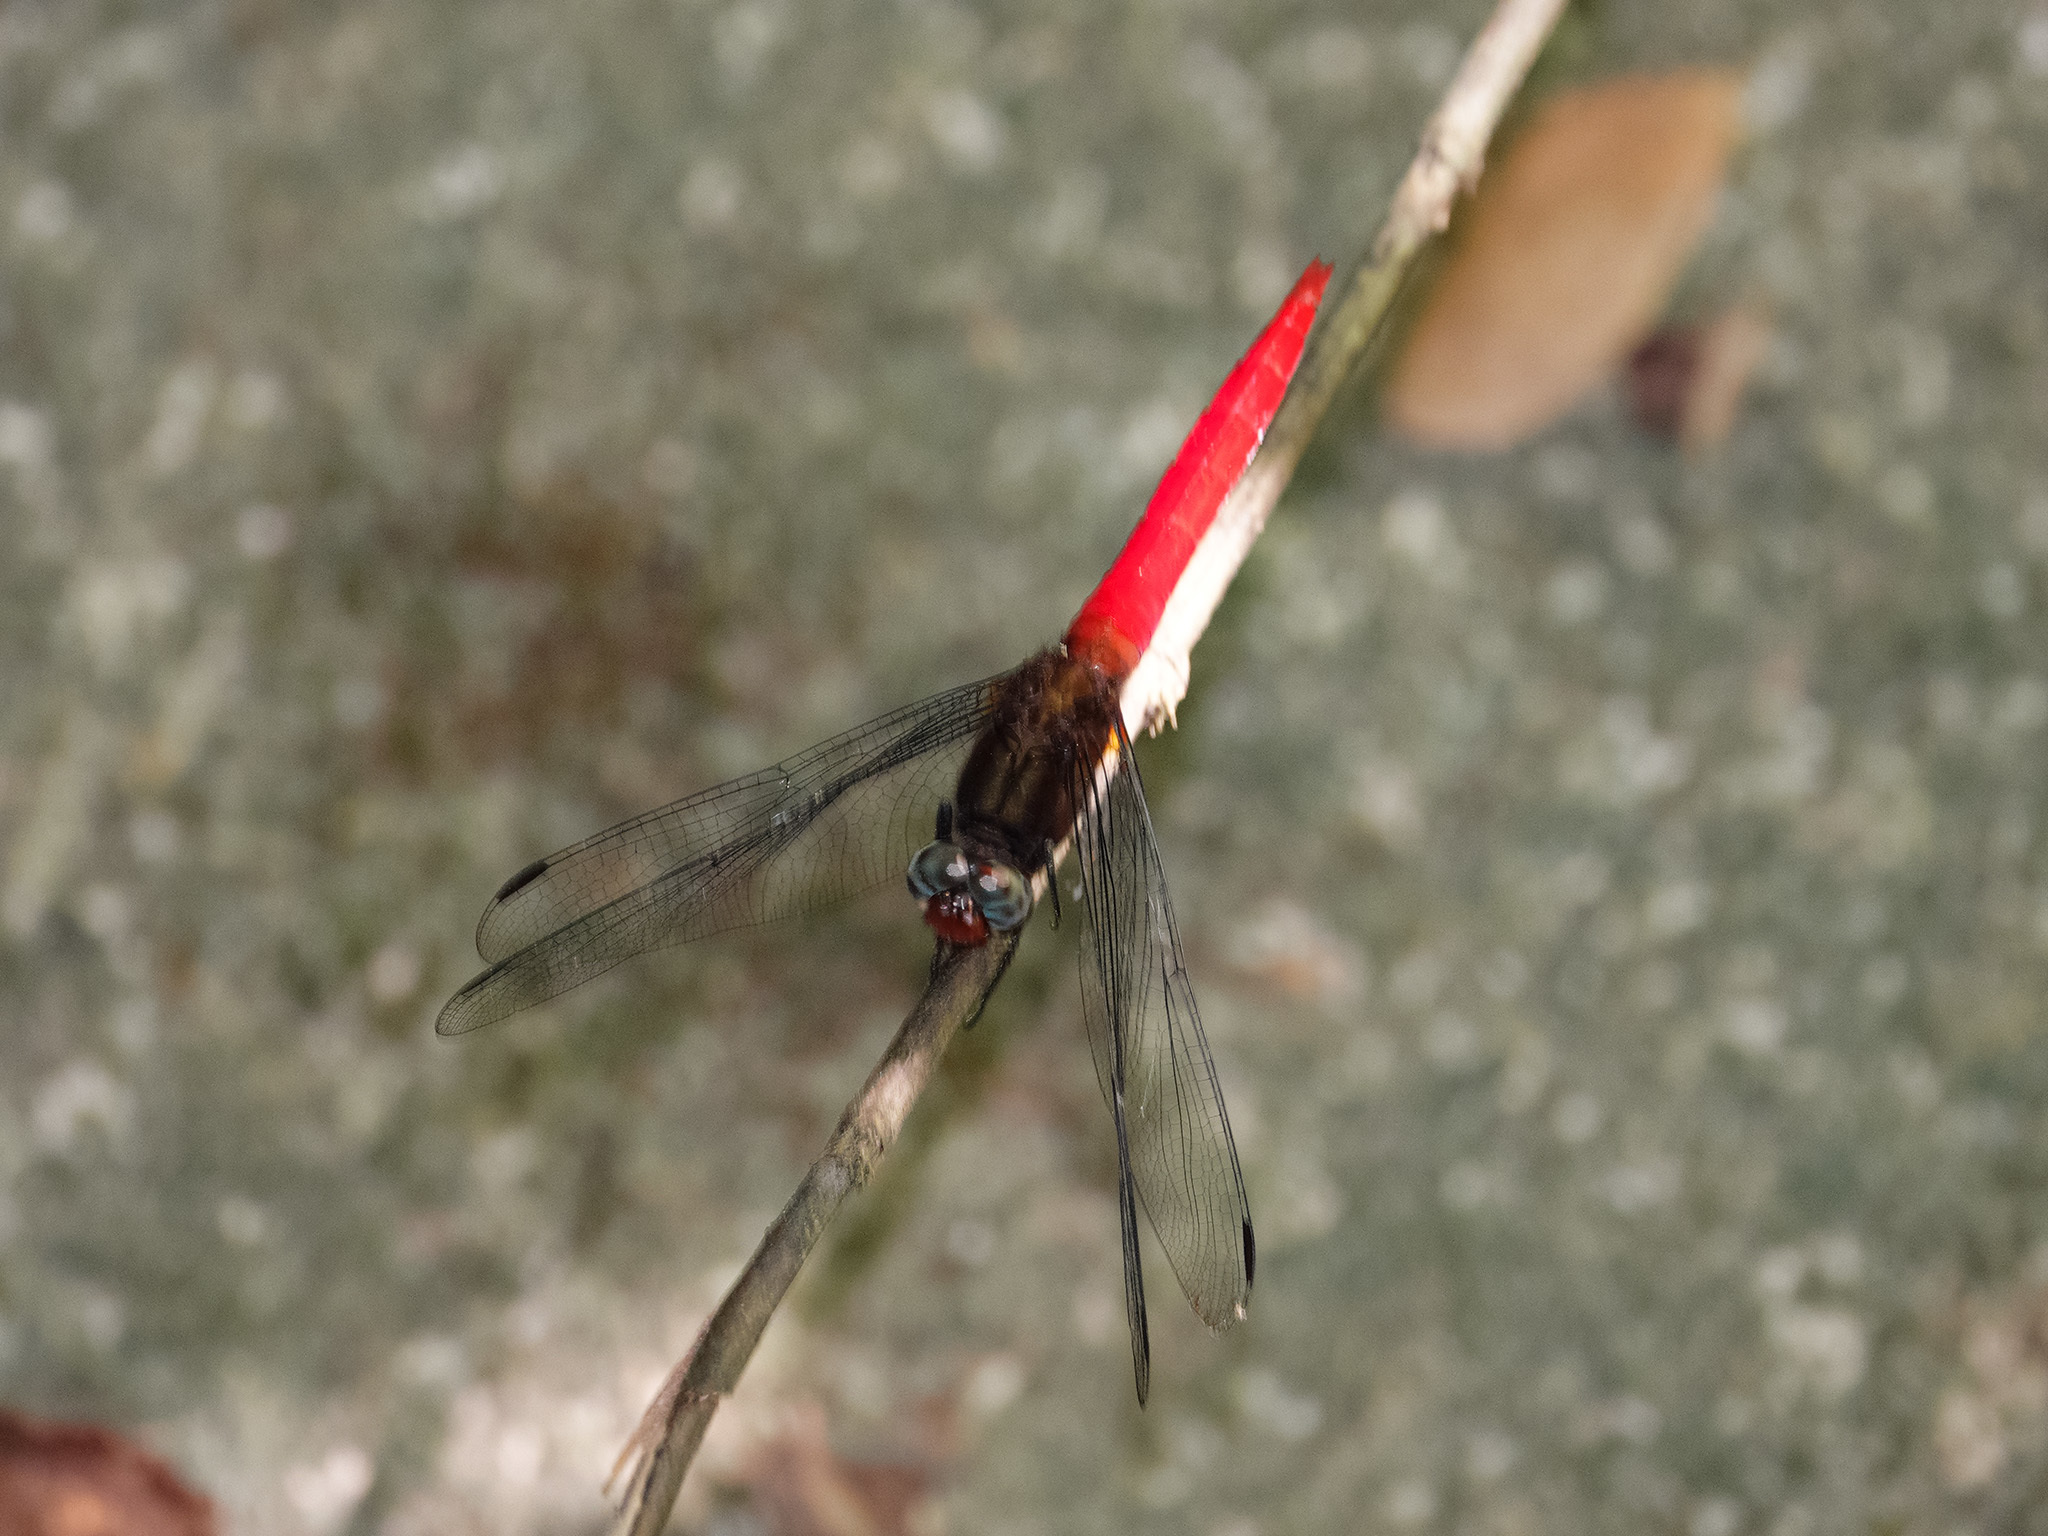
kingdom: Animalia
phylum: Arthropoda
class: Insecta
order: Odonata
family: Libellulidae
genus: Orthetrum
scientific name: Orthetrum chrysis
